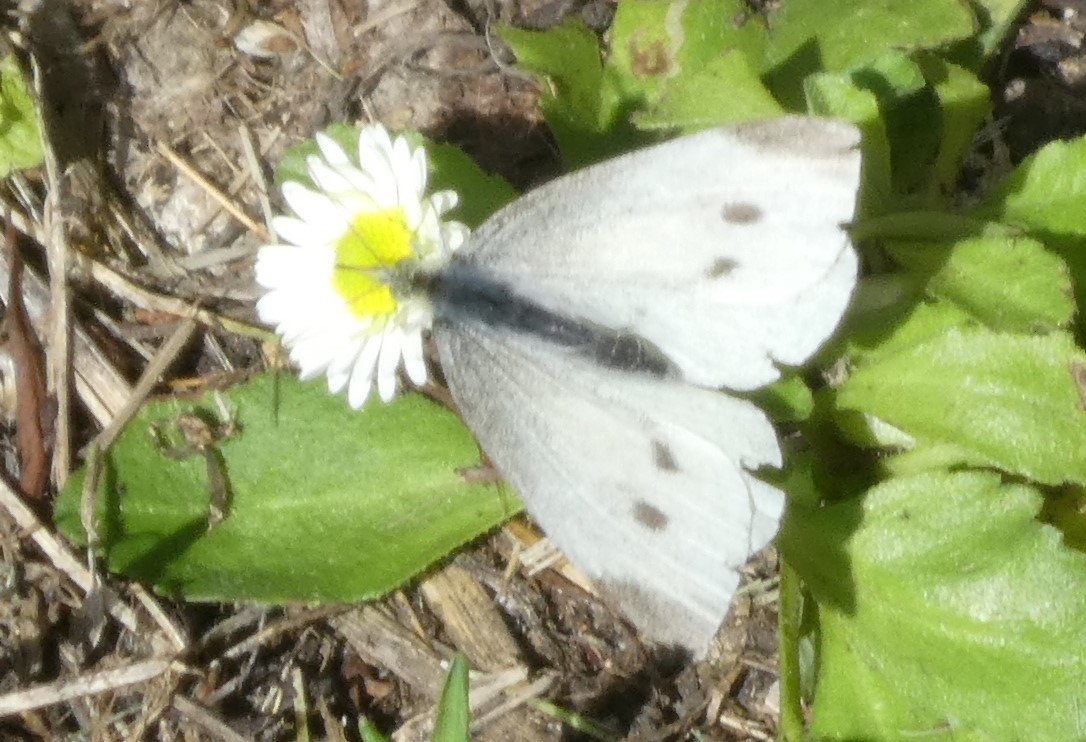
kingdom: Animalia
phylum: Arthropoda
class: Insecta
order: Lepidoptera
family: Pieridae
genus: Pieris
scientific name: Pieris rapae
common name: Small white
